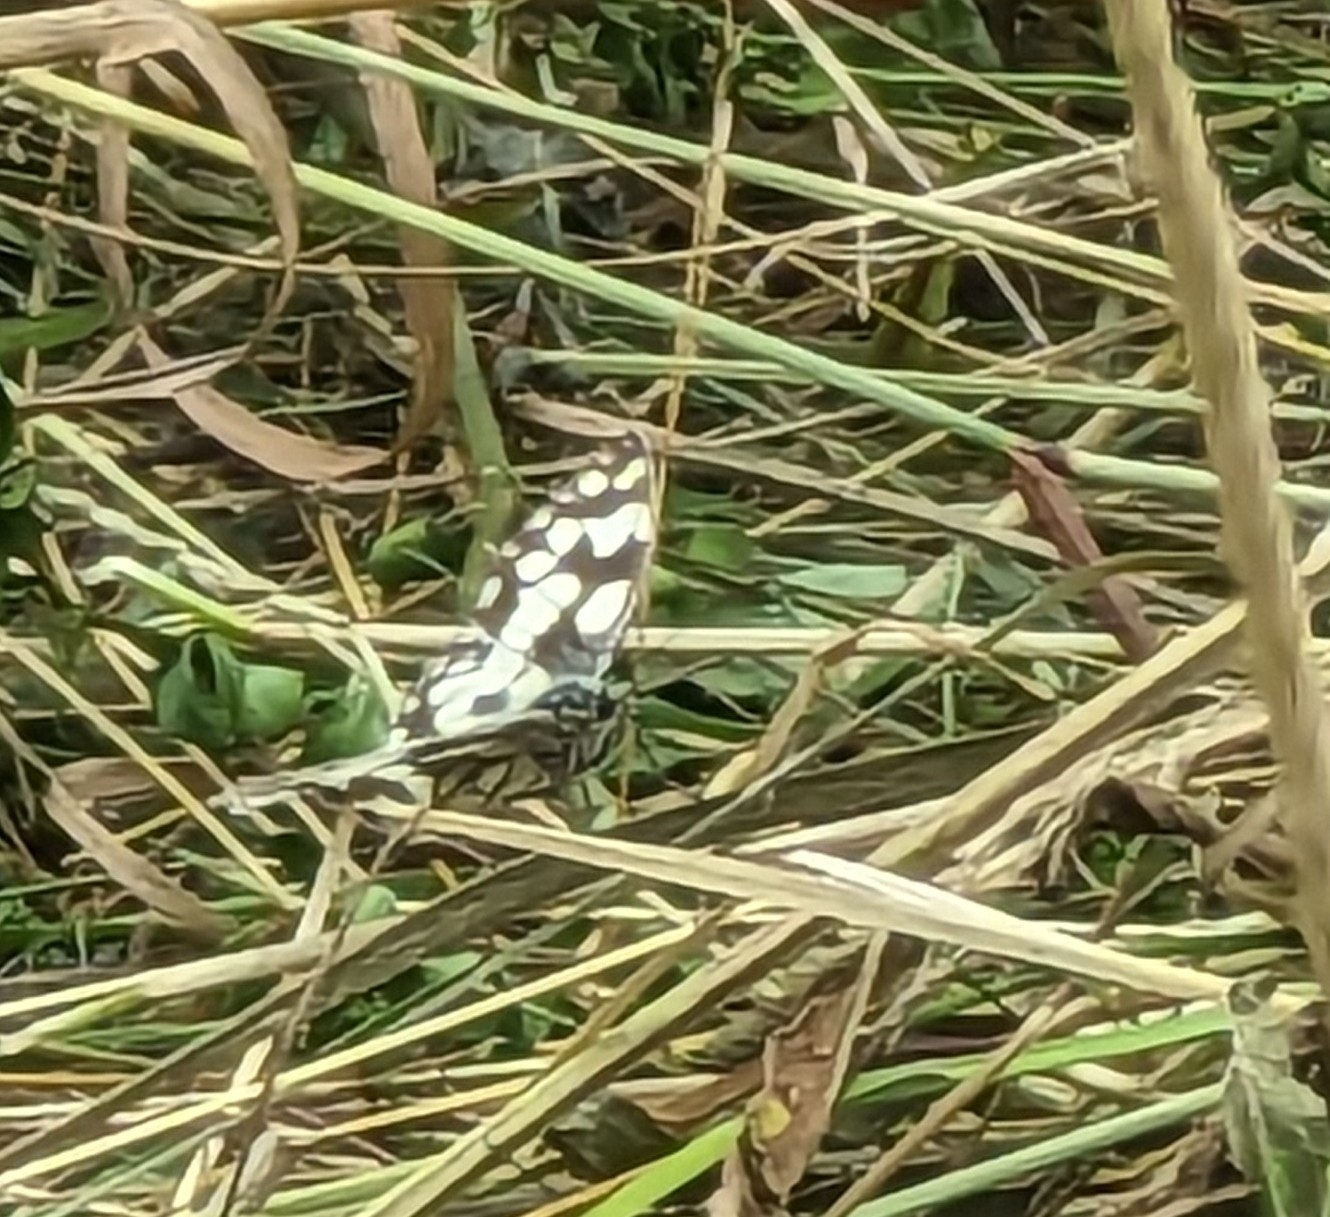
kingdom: Animalia
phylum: Arthropoda
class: Insecta
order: Lepidoptera
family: Nymphalidae
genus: Melanargia
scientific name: Melanargia galathea
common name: Marbled white
